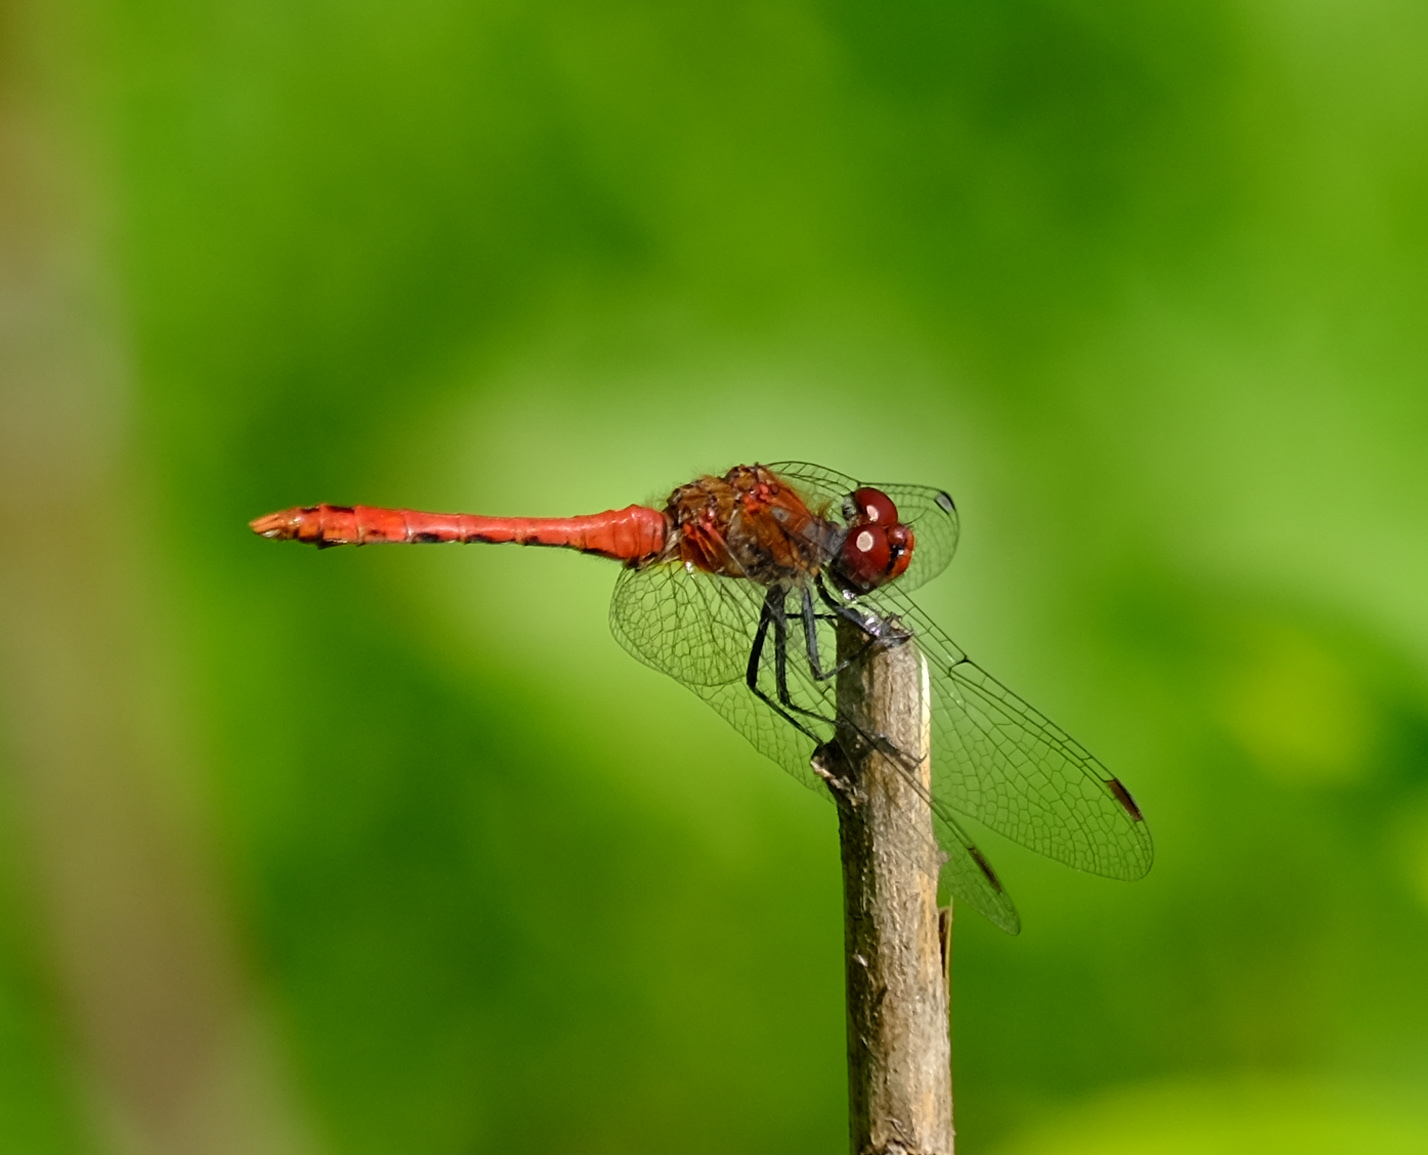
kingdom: Animalia
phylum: Arthropoda
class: Insecta
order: Odonata
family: Libellulidae
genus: Sympetrum
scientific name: Sympetrum sanguineum
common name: Ruddy darter
